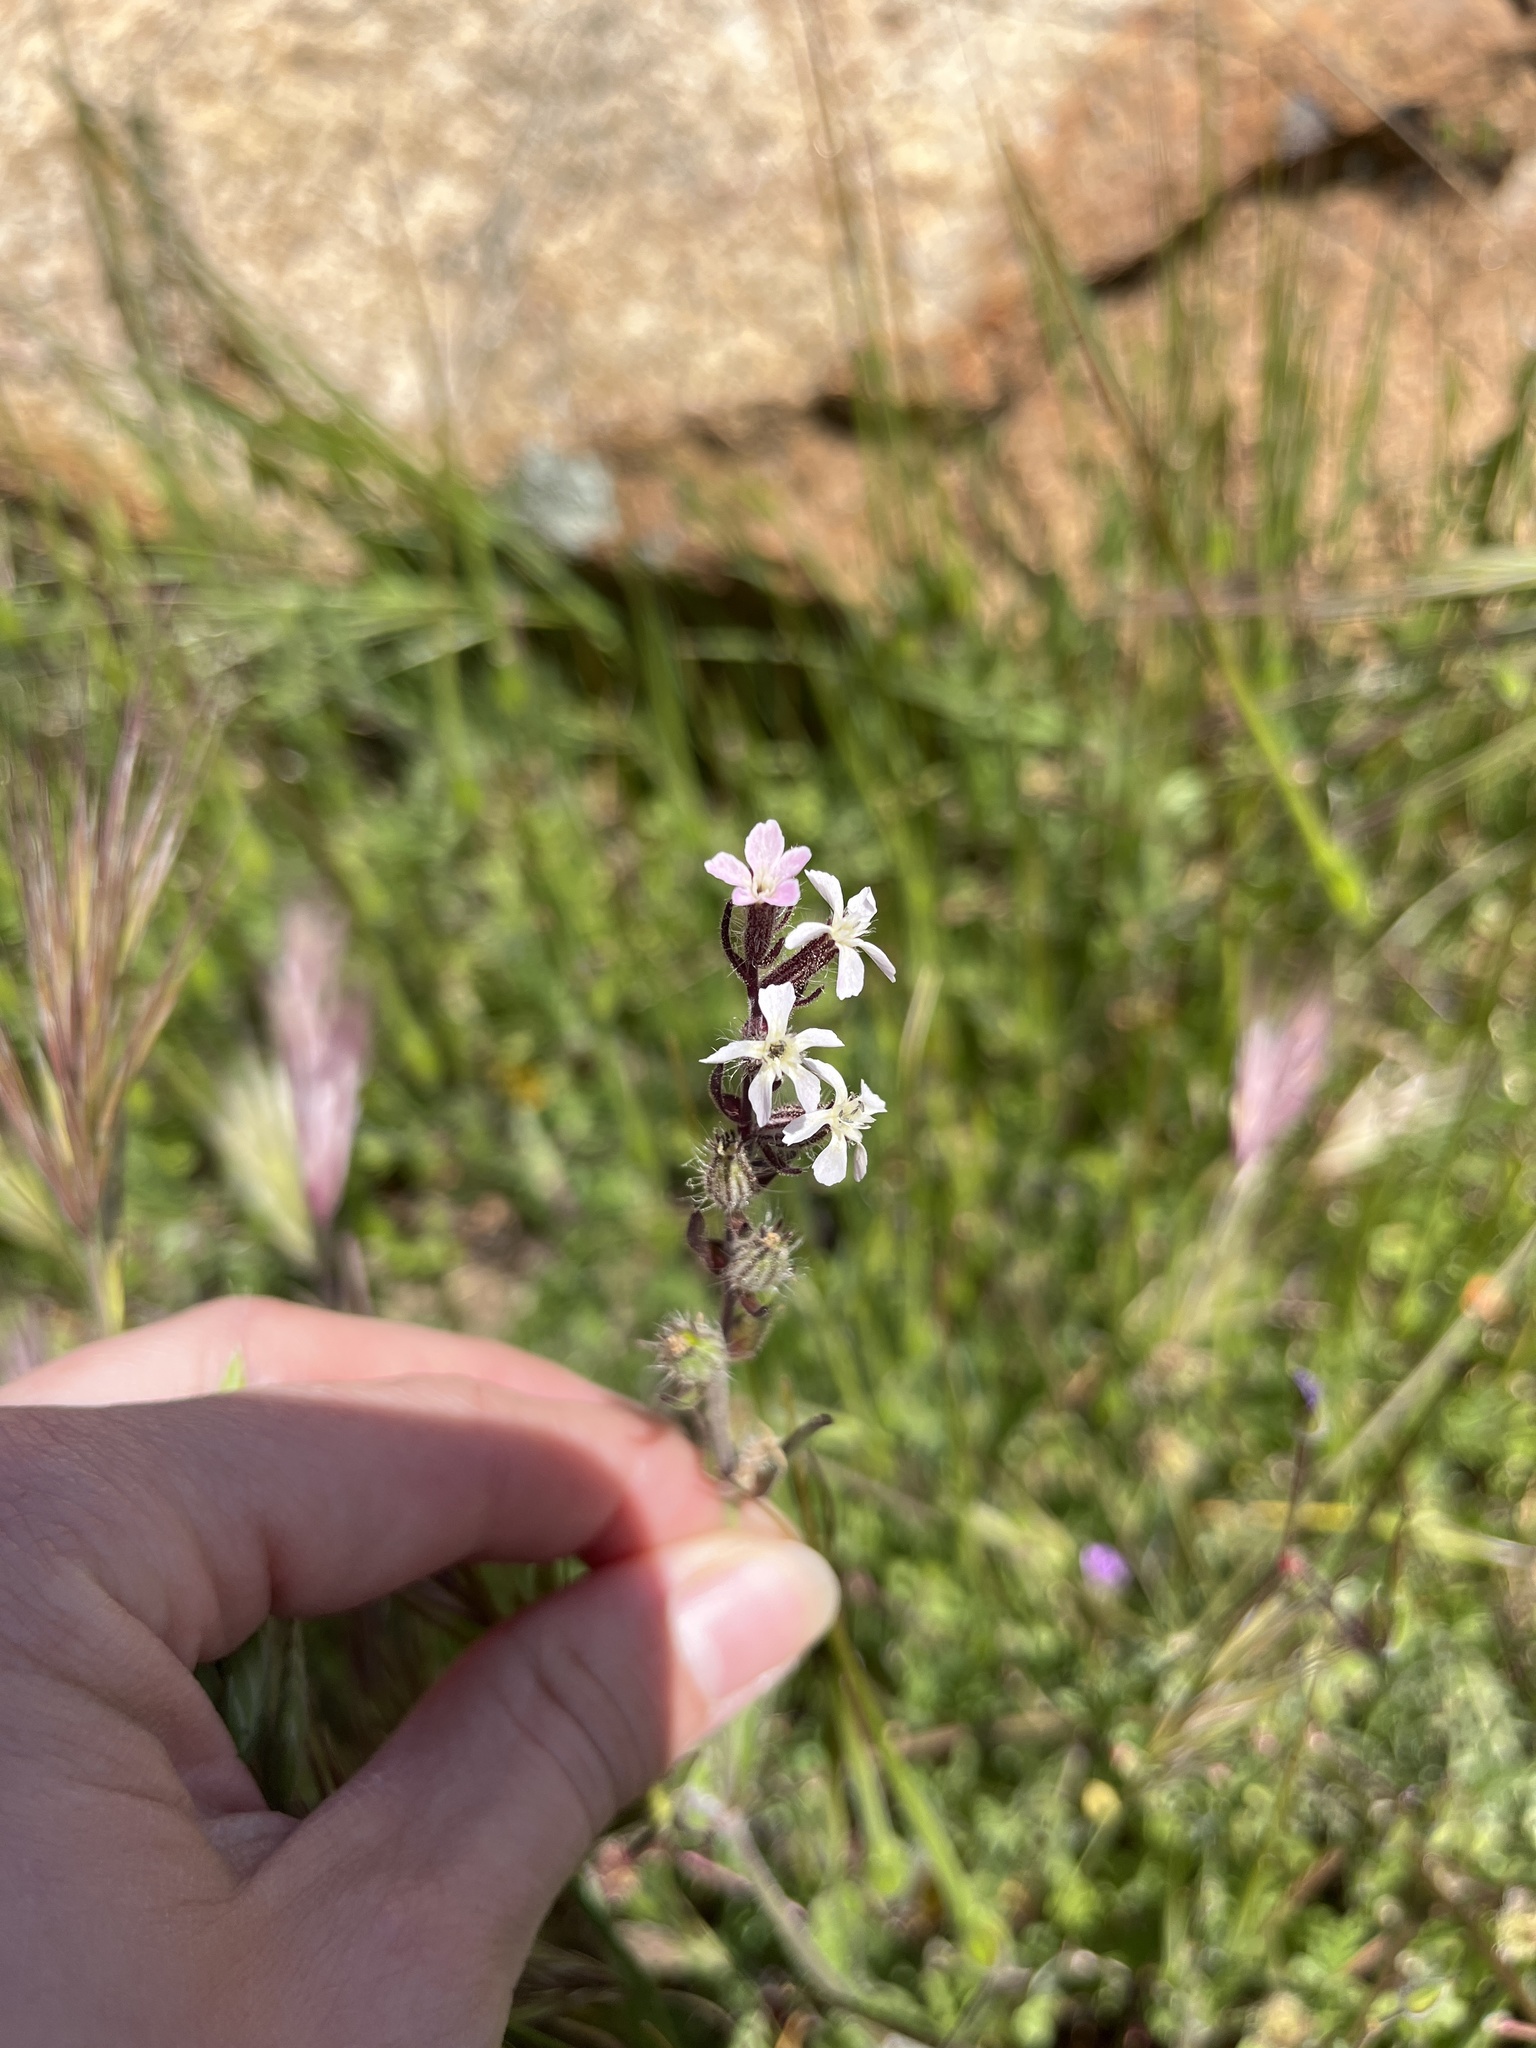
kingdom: Plantae
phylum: Tracheophyta
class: Magnoliopsida
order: Caryophyllales
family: Caryophyllaceae
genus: Silene
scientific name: Silene gallica
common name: Small-flowered catchfly
